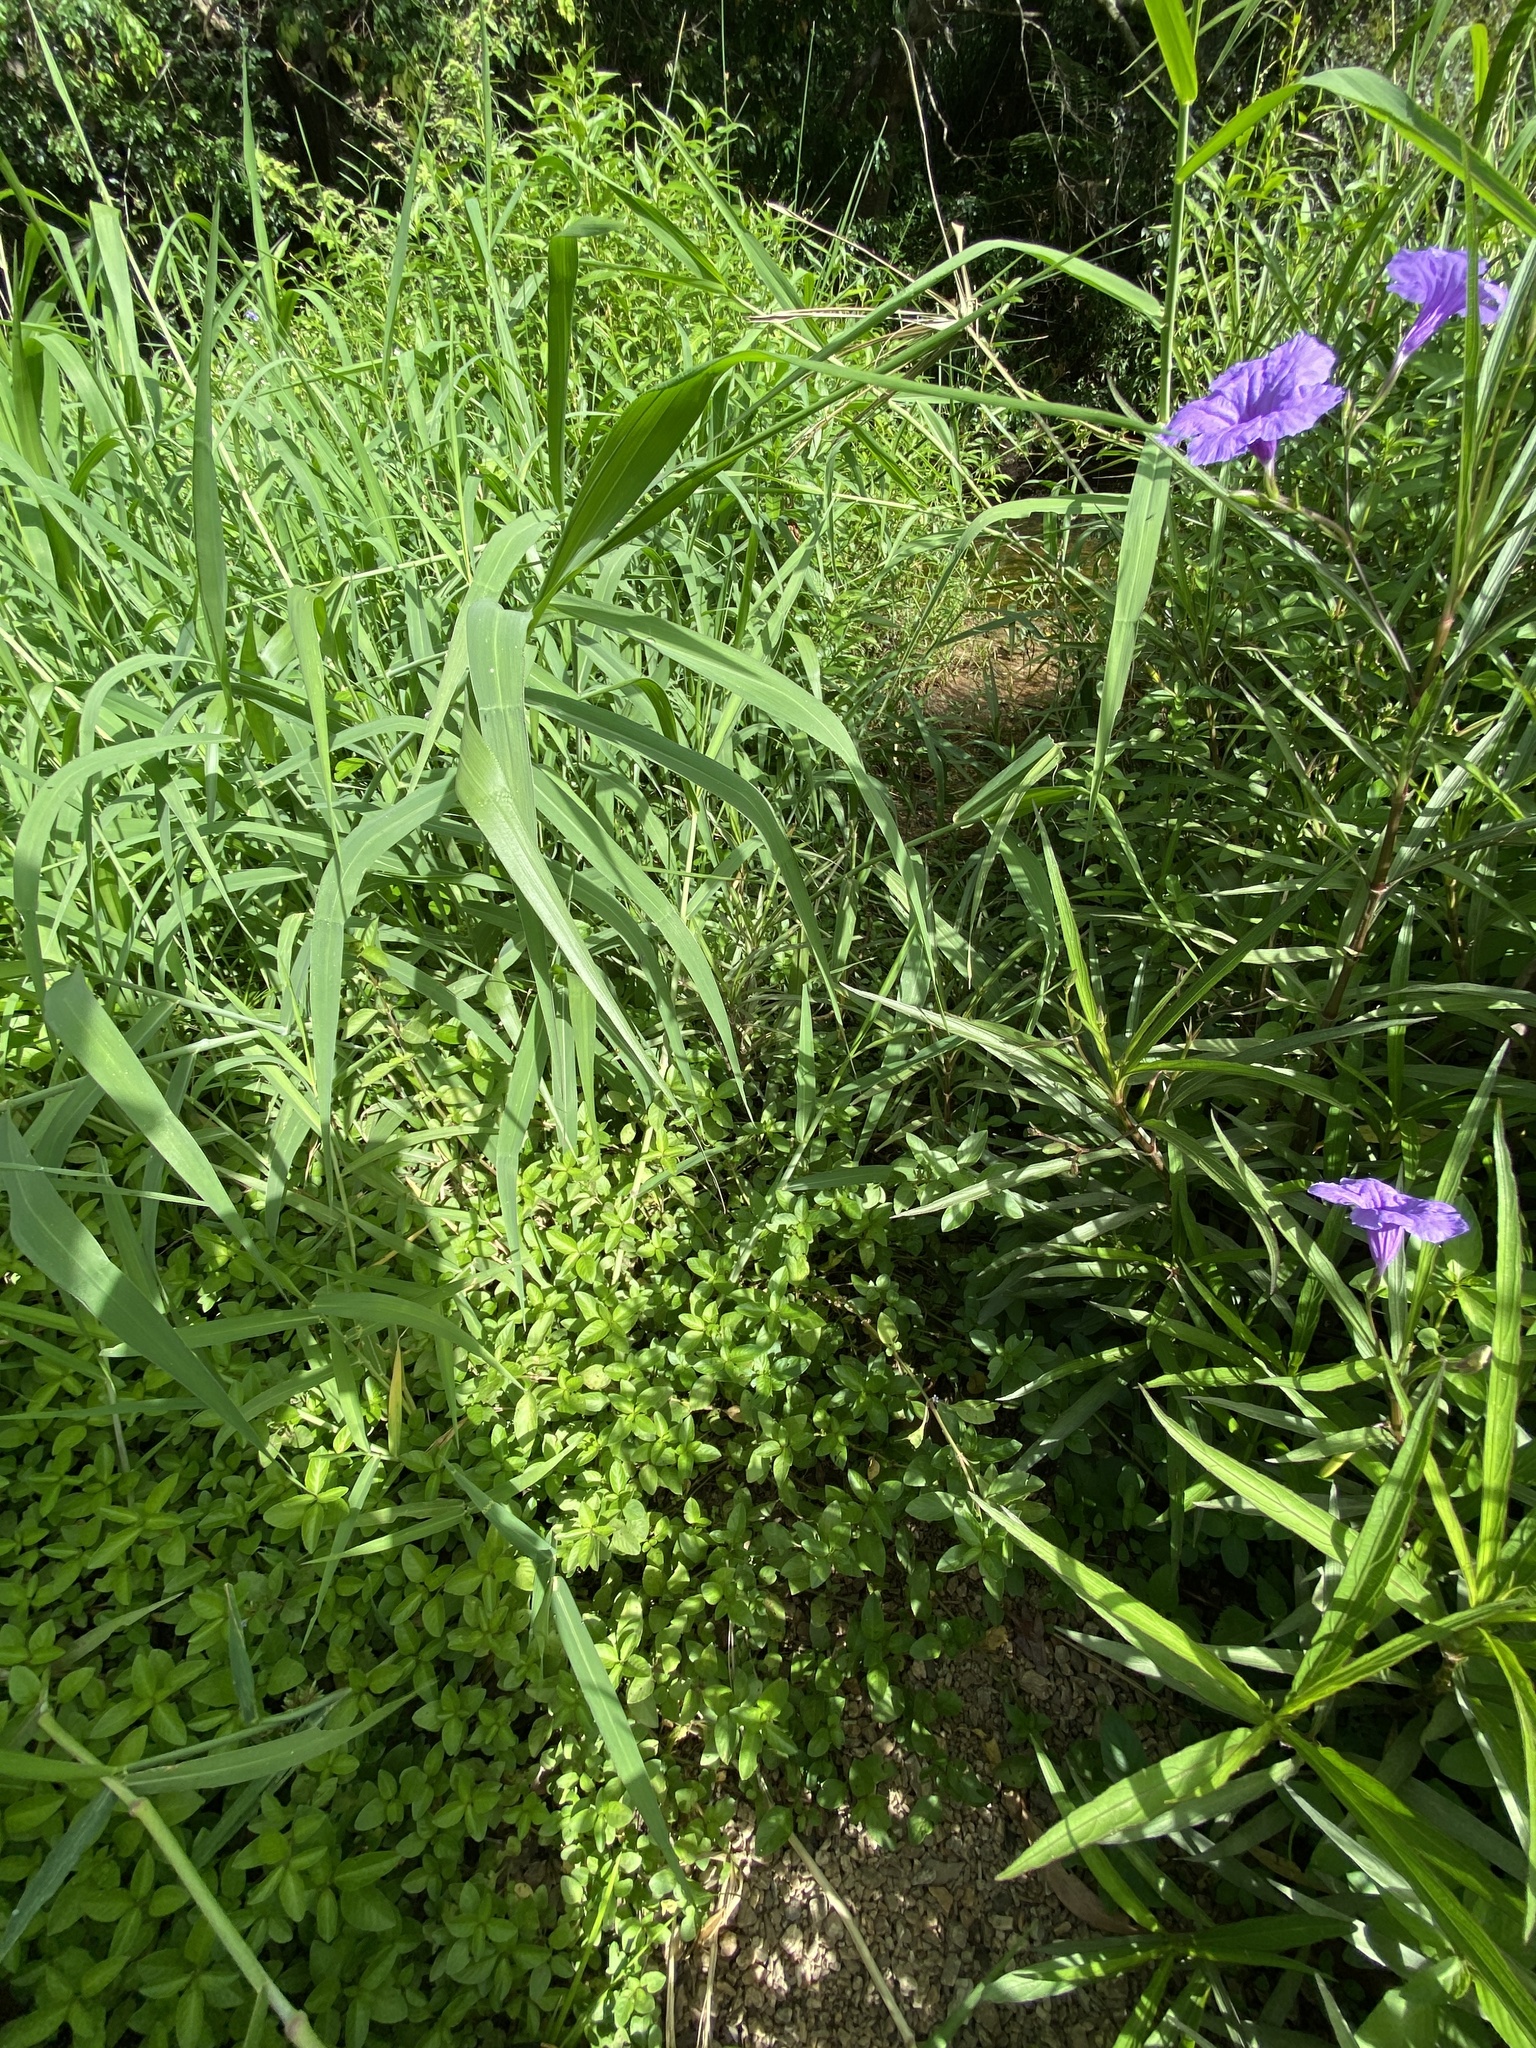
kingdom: Plantae
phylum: Tracheophyta
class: Magnoliopsida
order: Lamiales
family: Acanthaceae
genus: Hygrophila
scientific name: Hygrophila erecta
